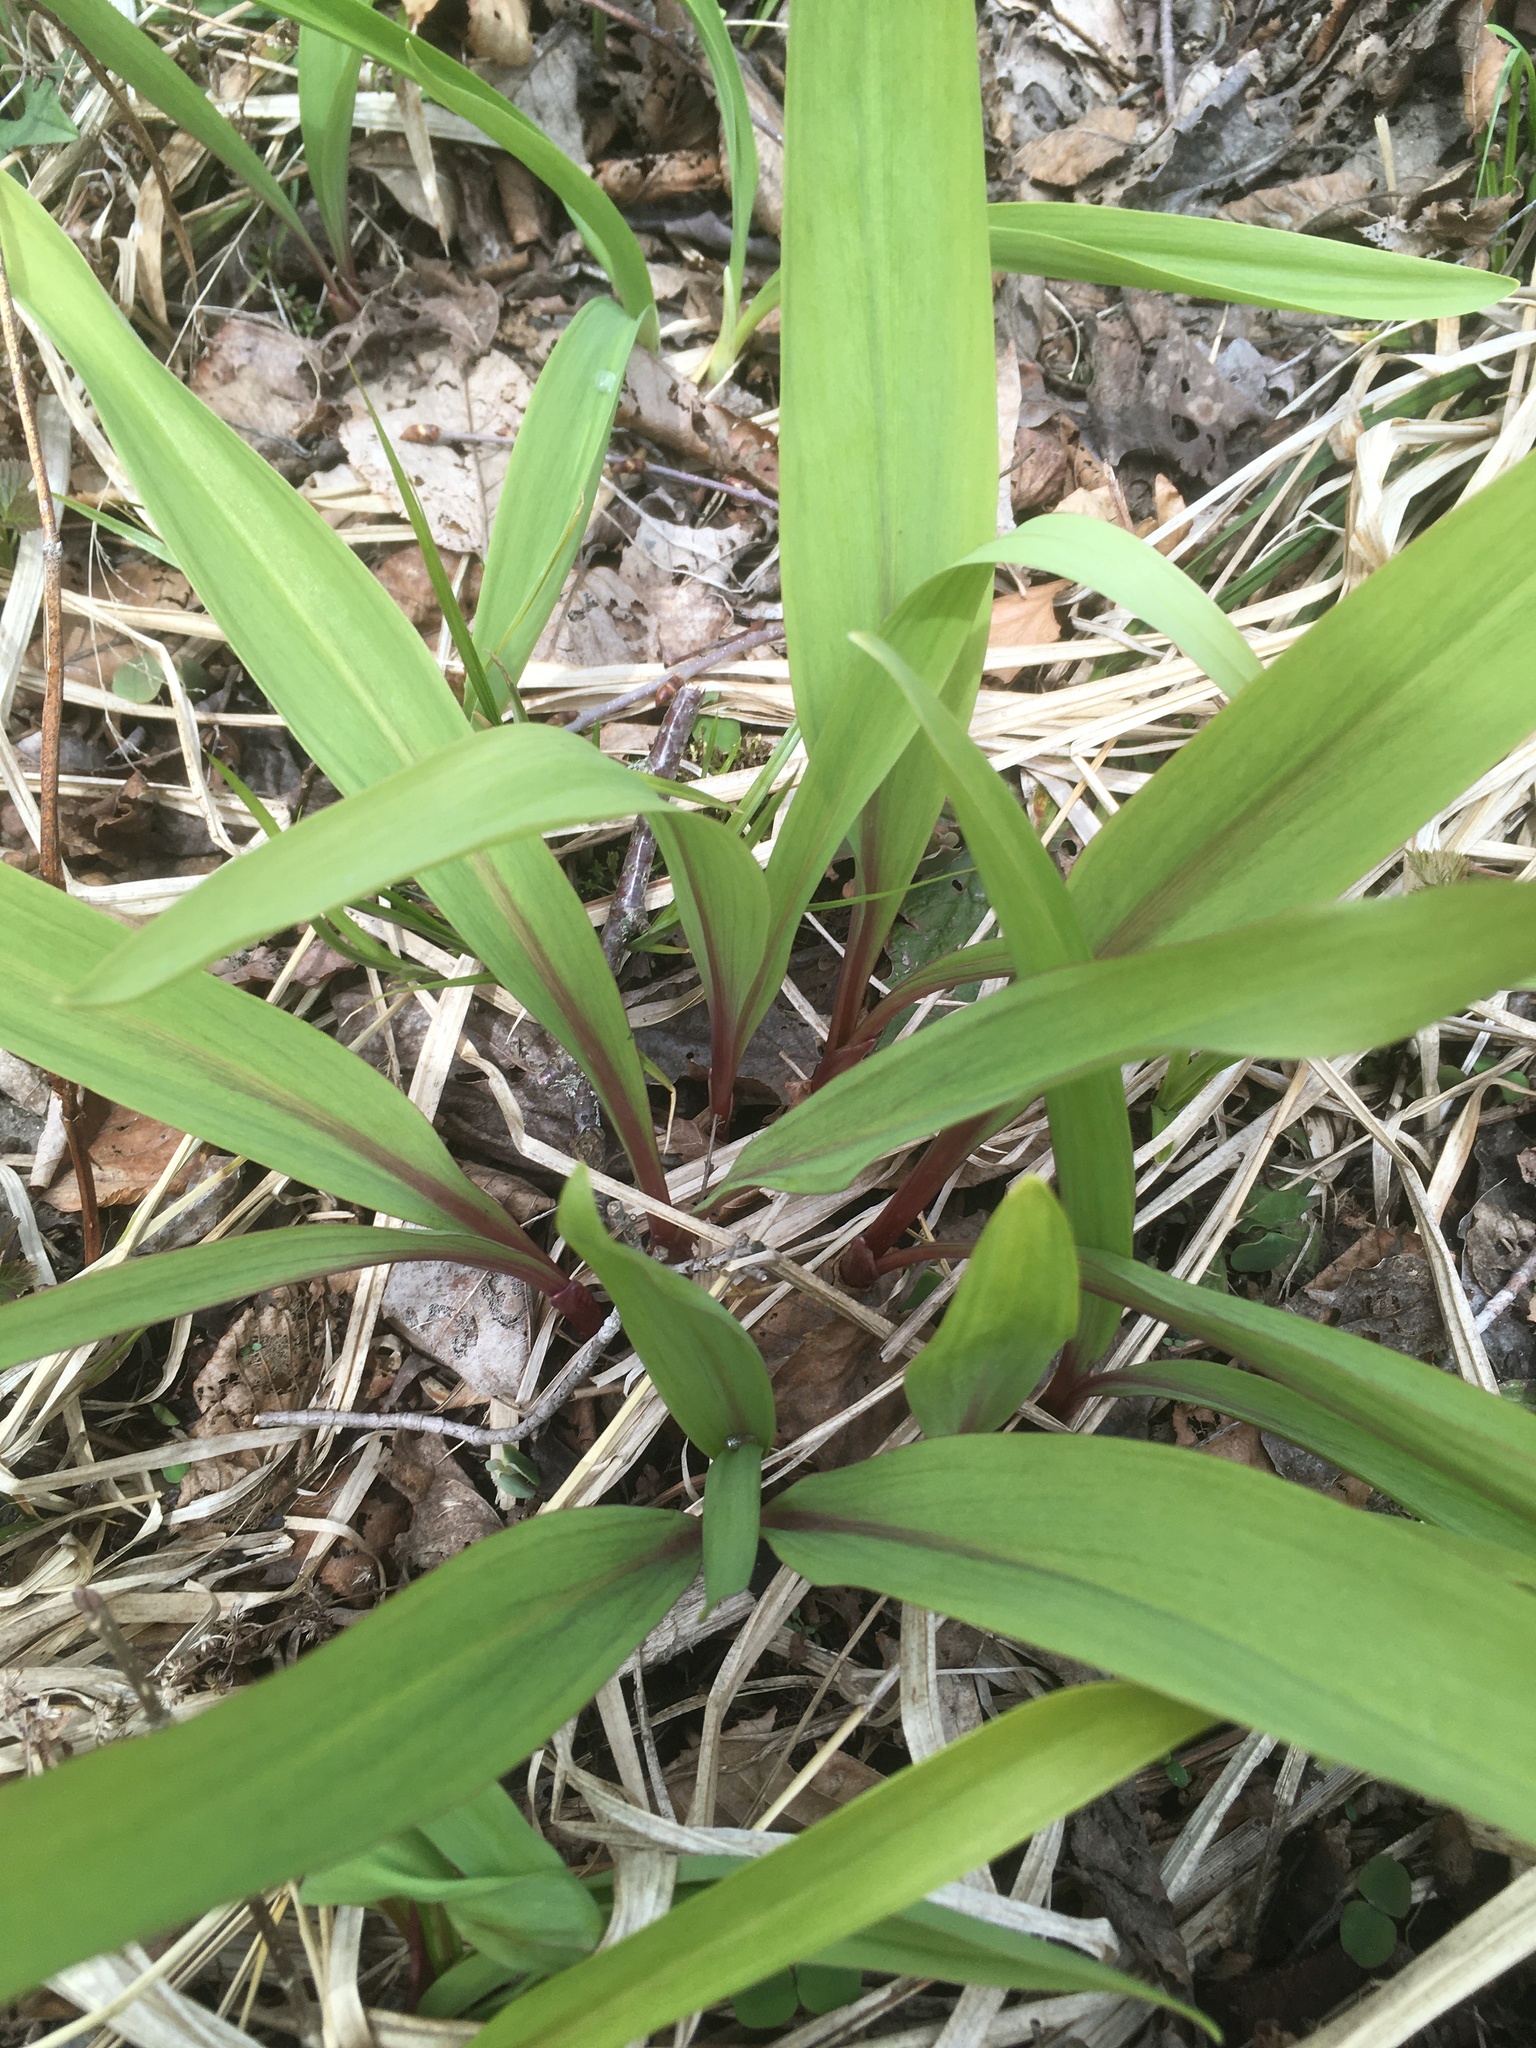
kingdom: Plantae
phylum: Tracheophyta
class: Liliopsida
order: Asparagales
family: Amaryllidaceae
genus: Allium
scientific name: Allium tricoccum
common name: Ramp
